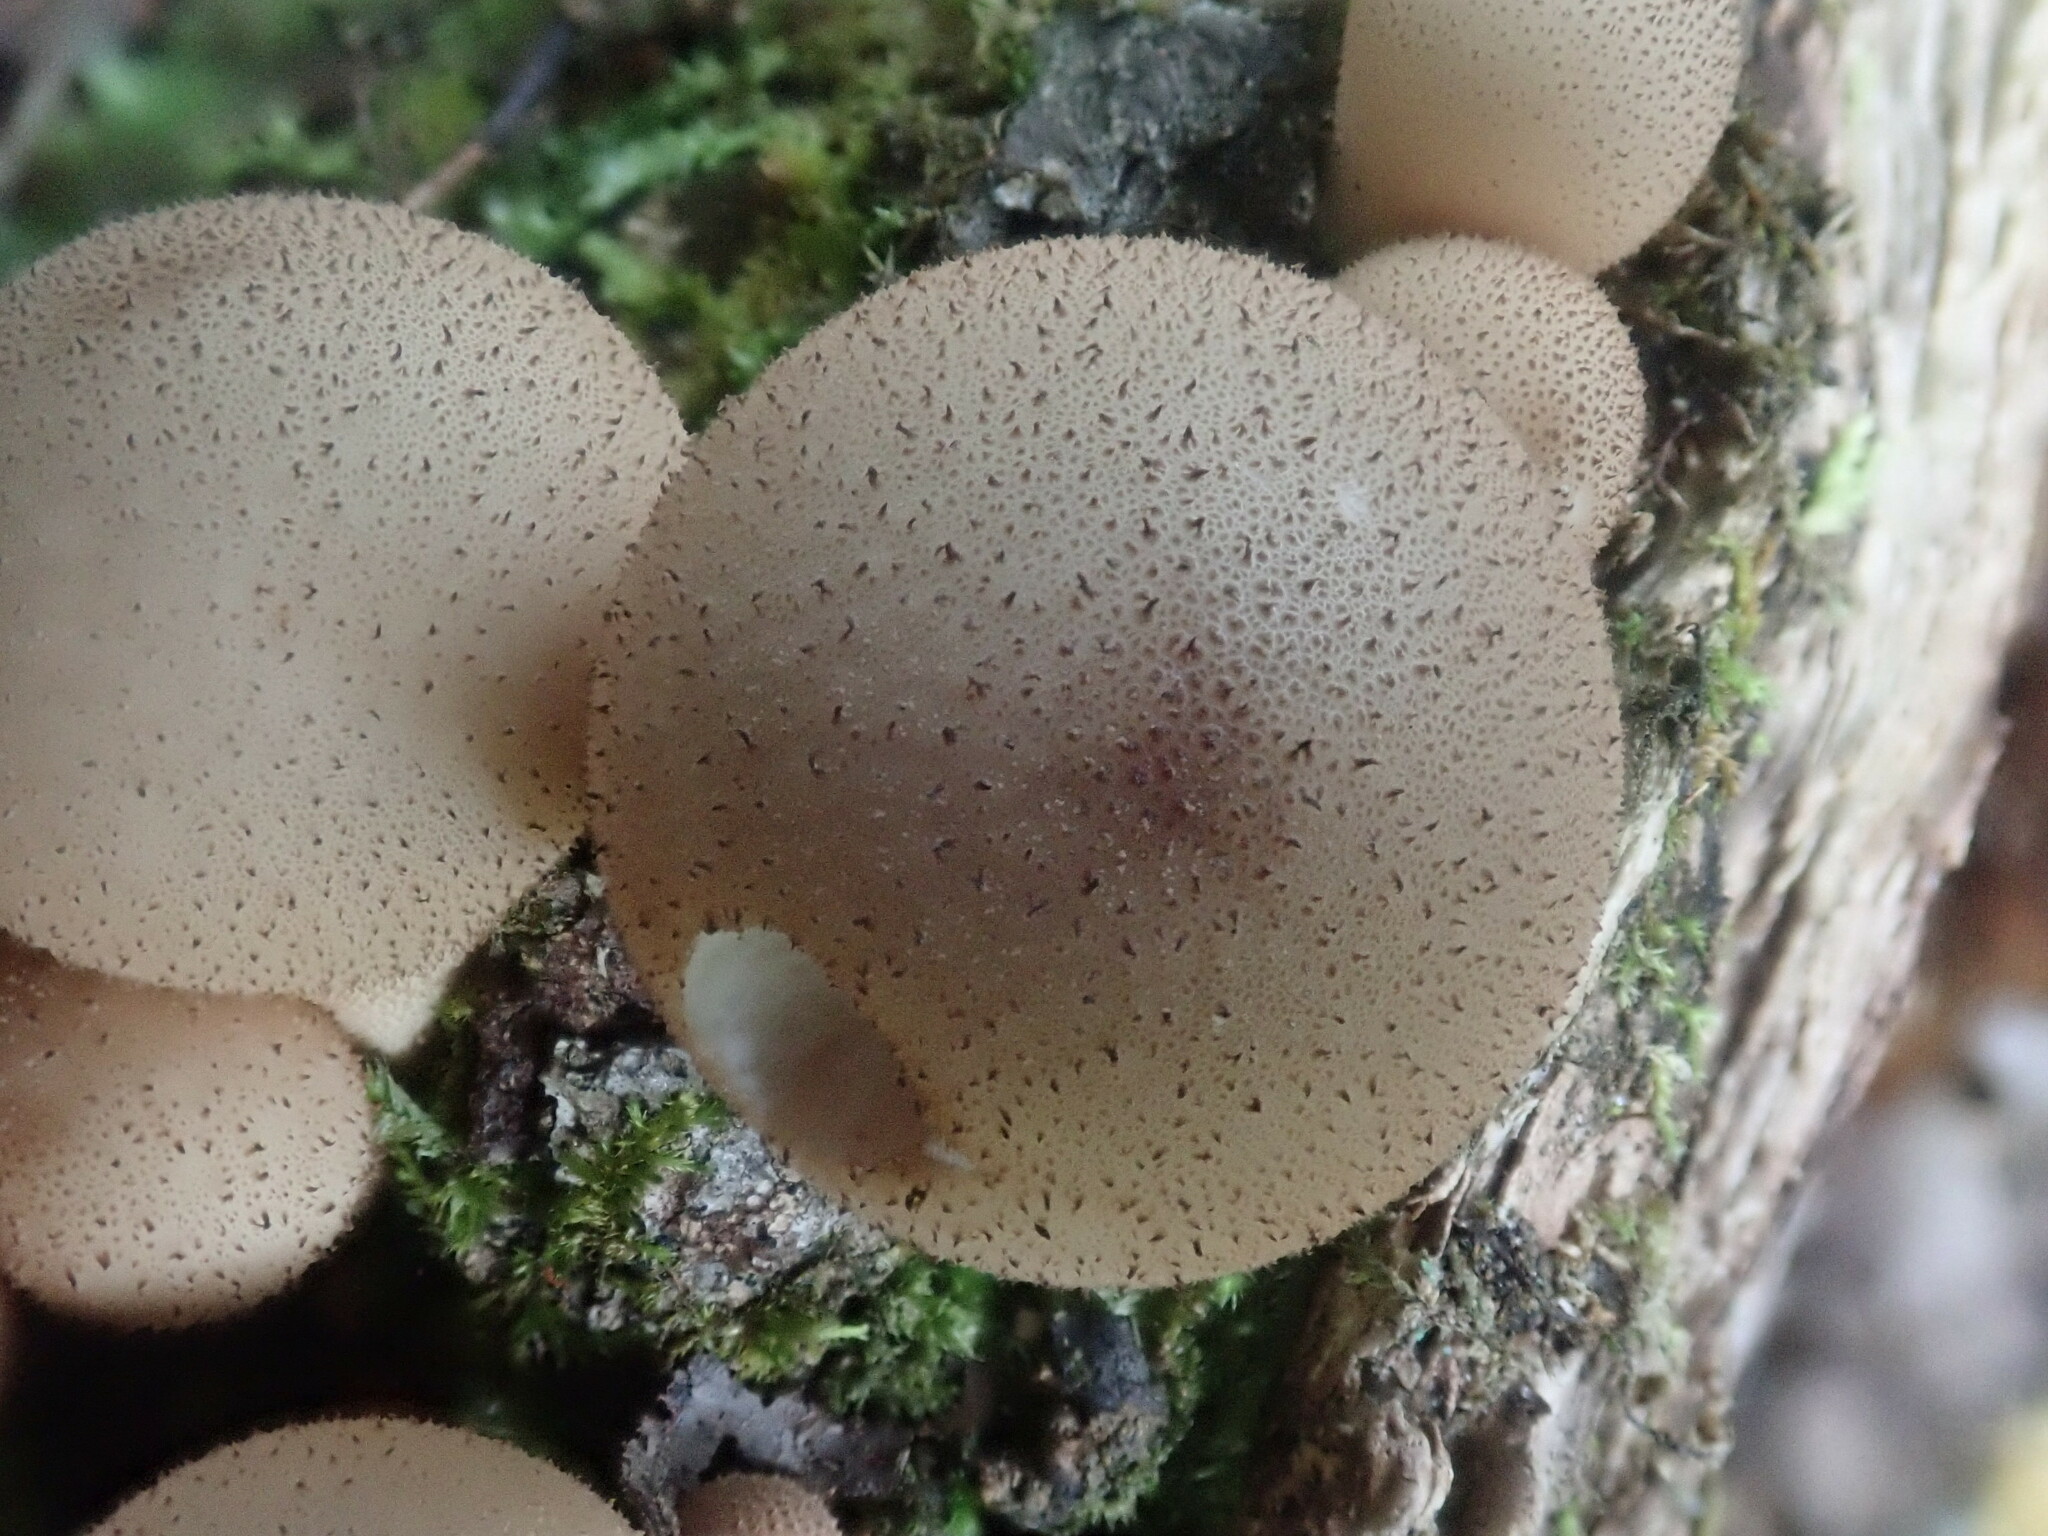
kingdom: Fungi
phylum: Basidiomycota
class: Agaricomycetes
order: Agaricales
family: Lycoperdaceae
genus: Apioperdon
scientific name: Apioperdon pyriforme
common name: Pear-shaped puffball
